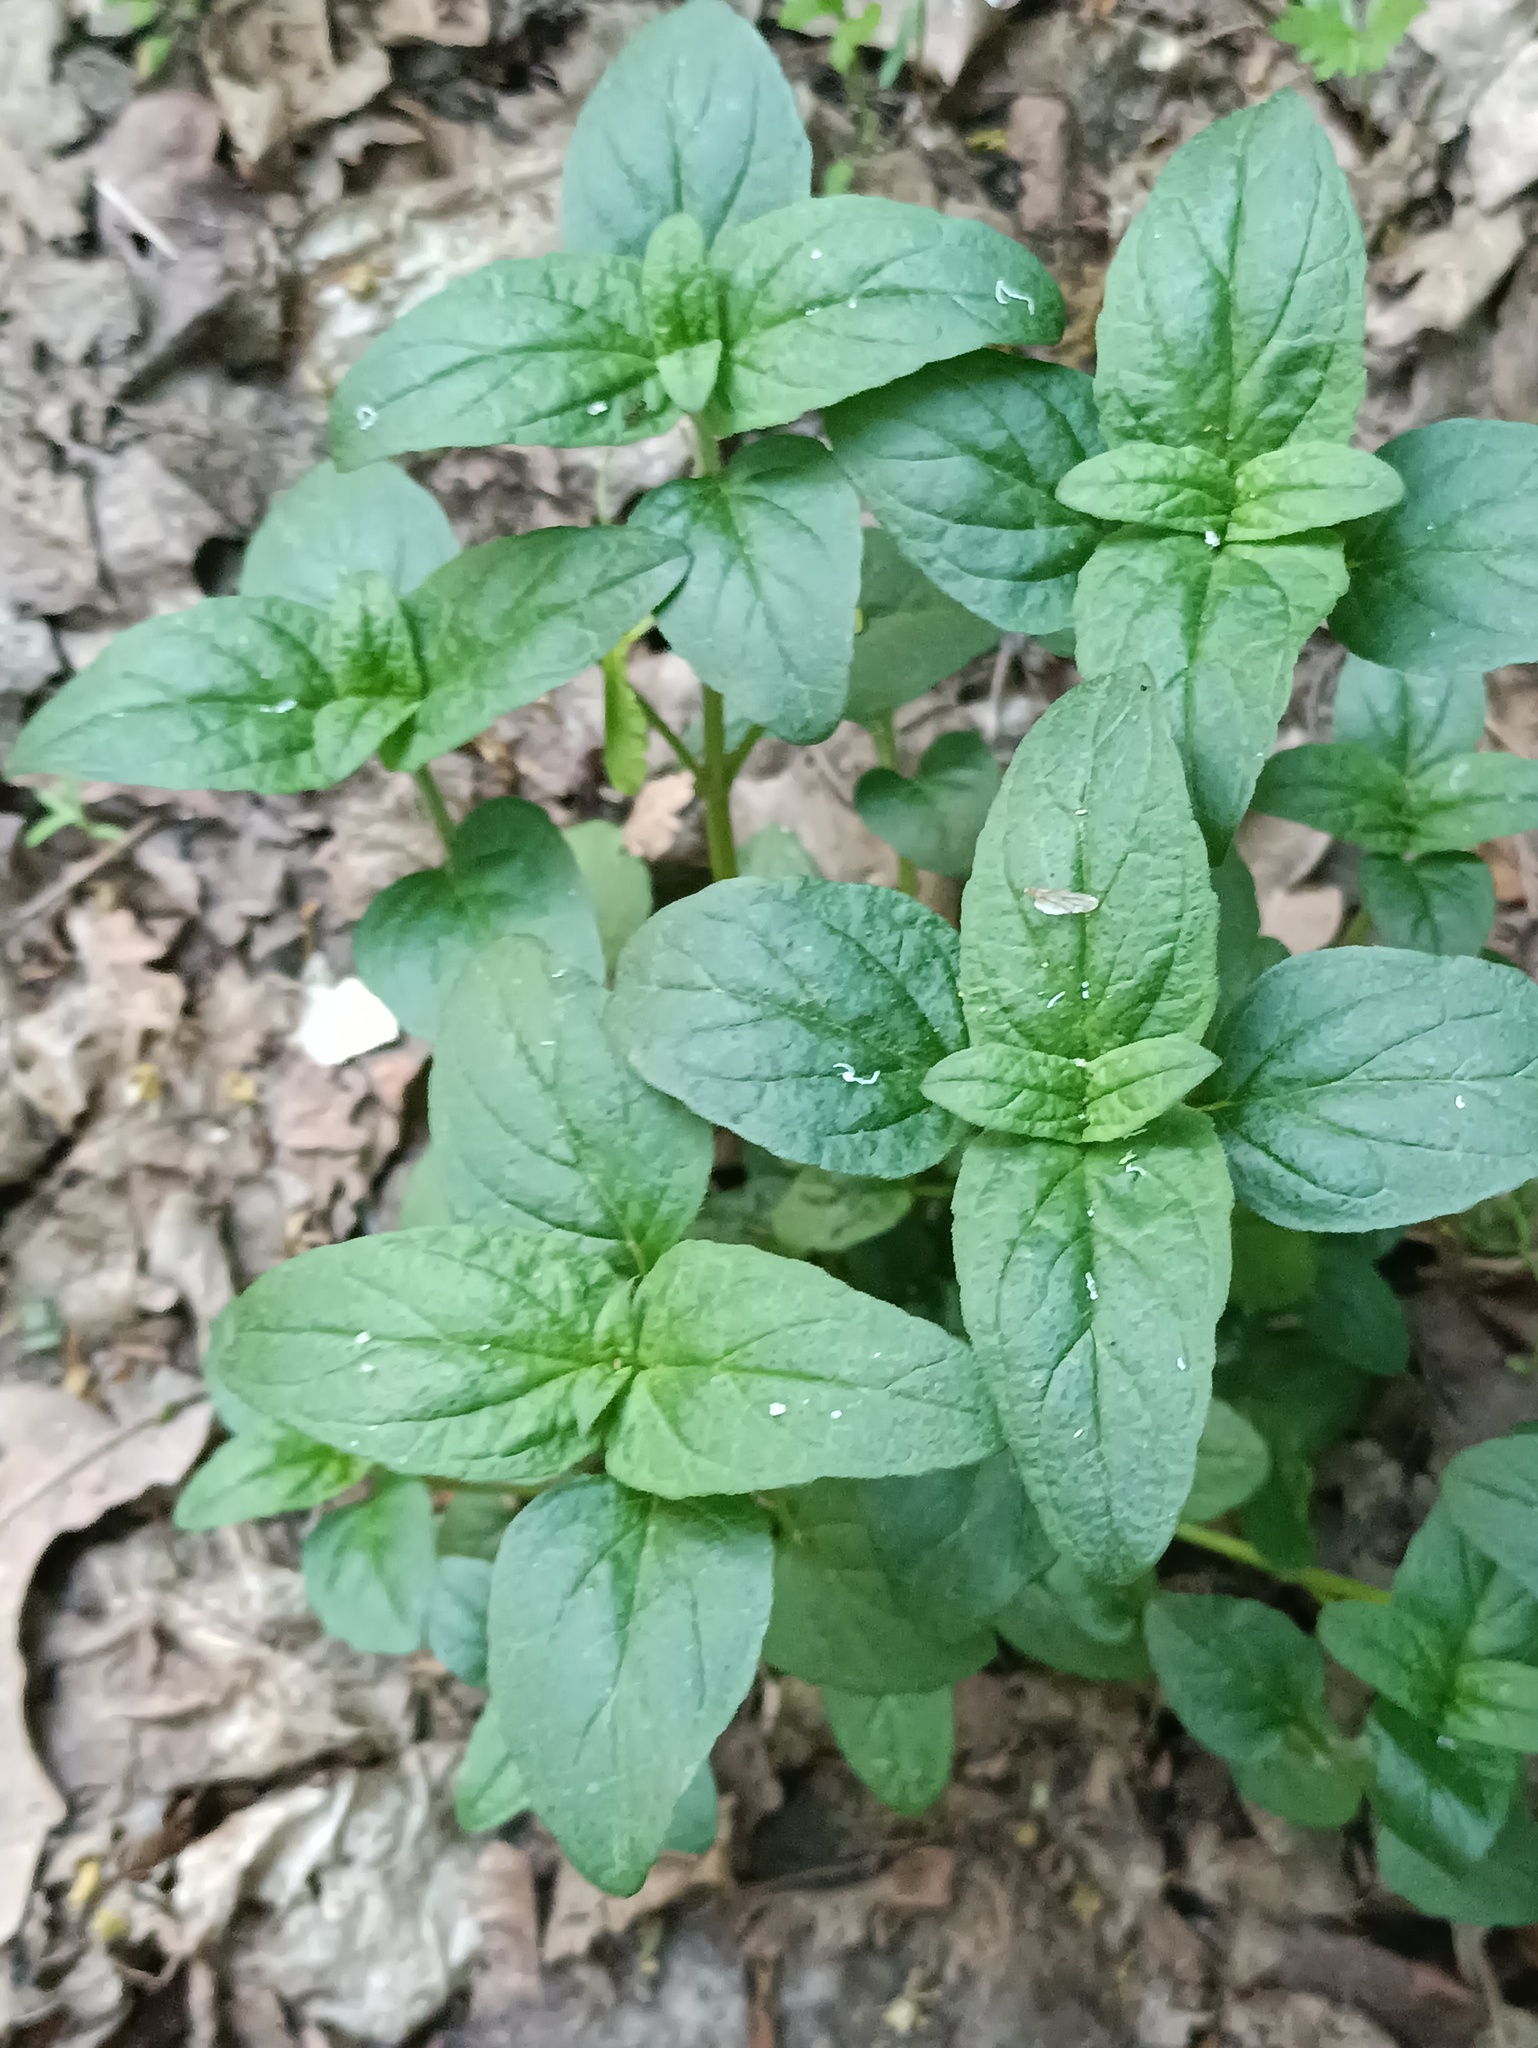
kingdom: Plantae
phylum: Tracheophyta
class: Magnoliopsida
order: Lamiales
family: Lamiaceae
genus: Mentha
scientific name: Mentha arvensis
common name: Corn mint
